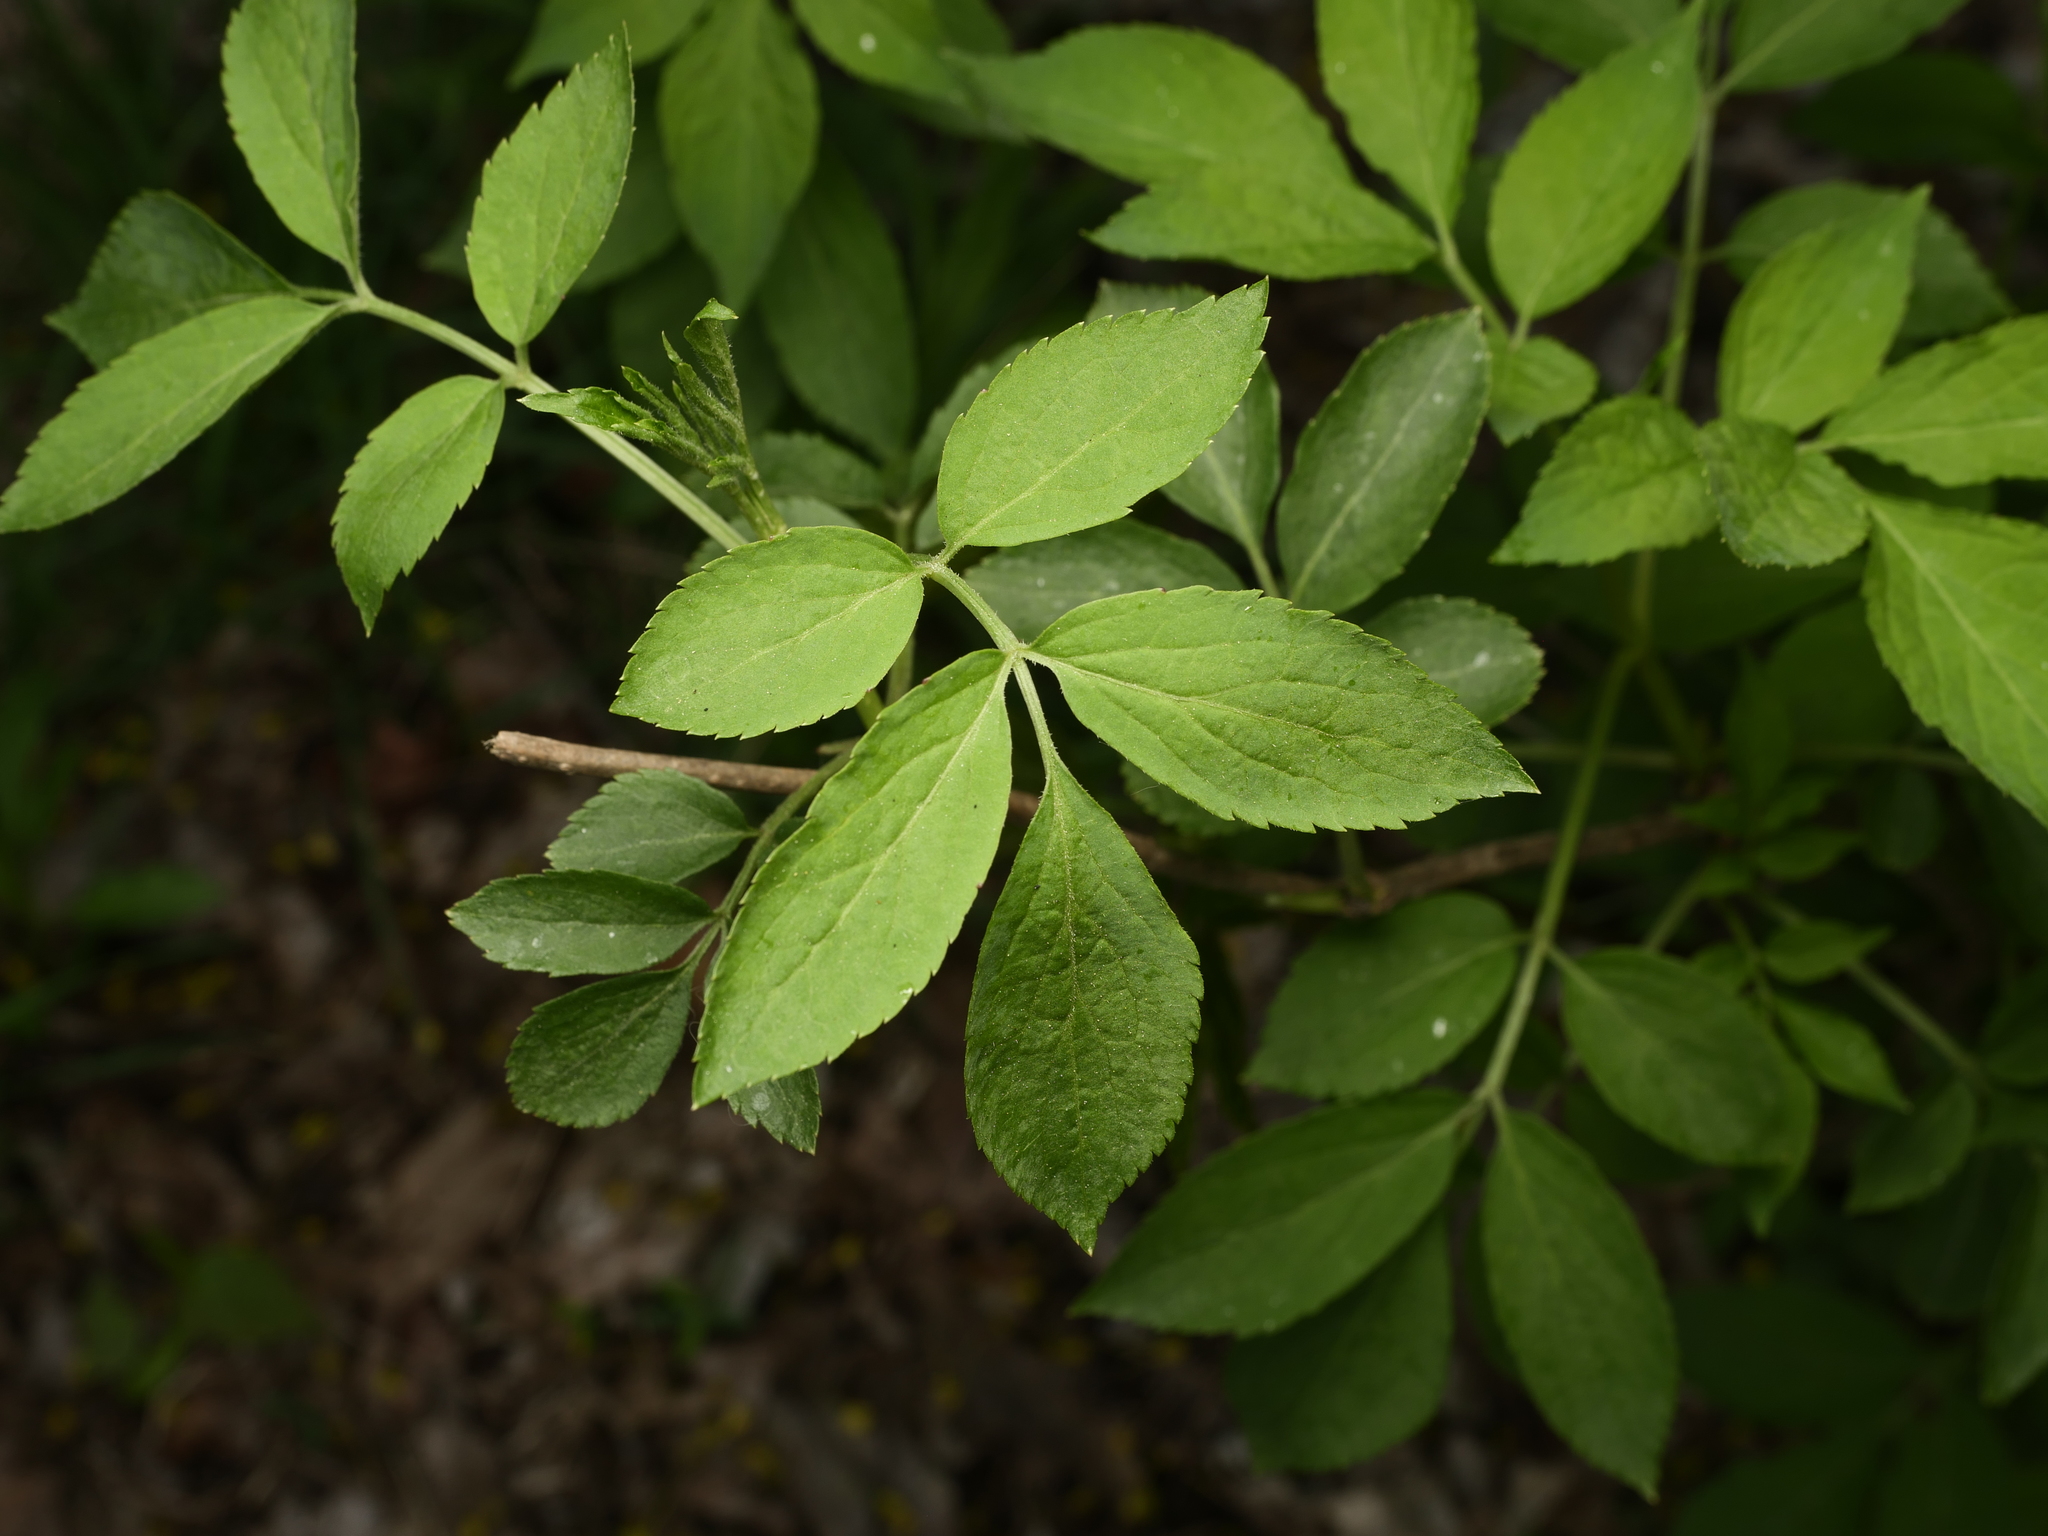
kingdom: Plantae
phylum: Tracheophyta
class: Magnoliopsida
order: Dipsacales
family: Viburnaceae
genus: Sambucus
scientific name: Sambucus nigra
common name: Elder
